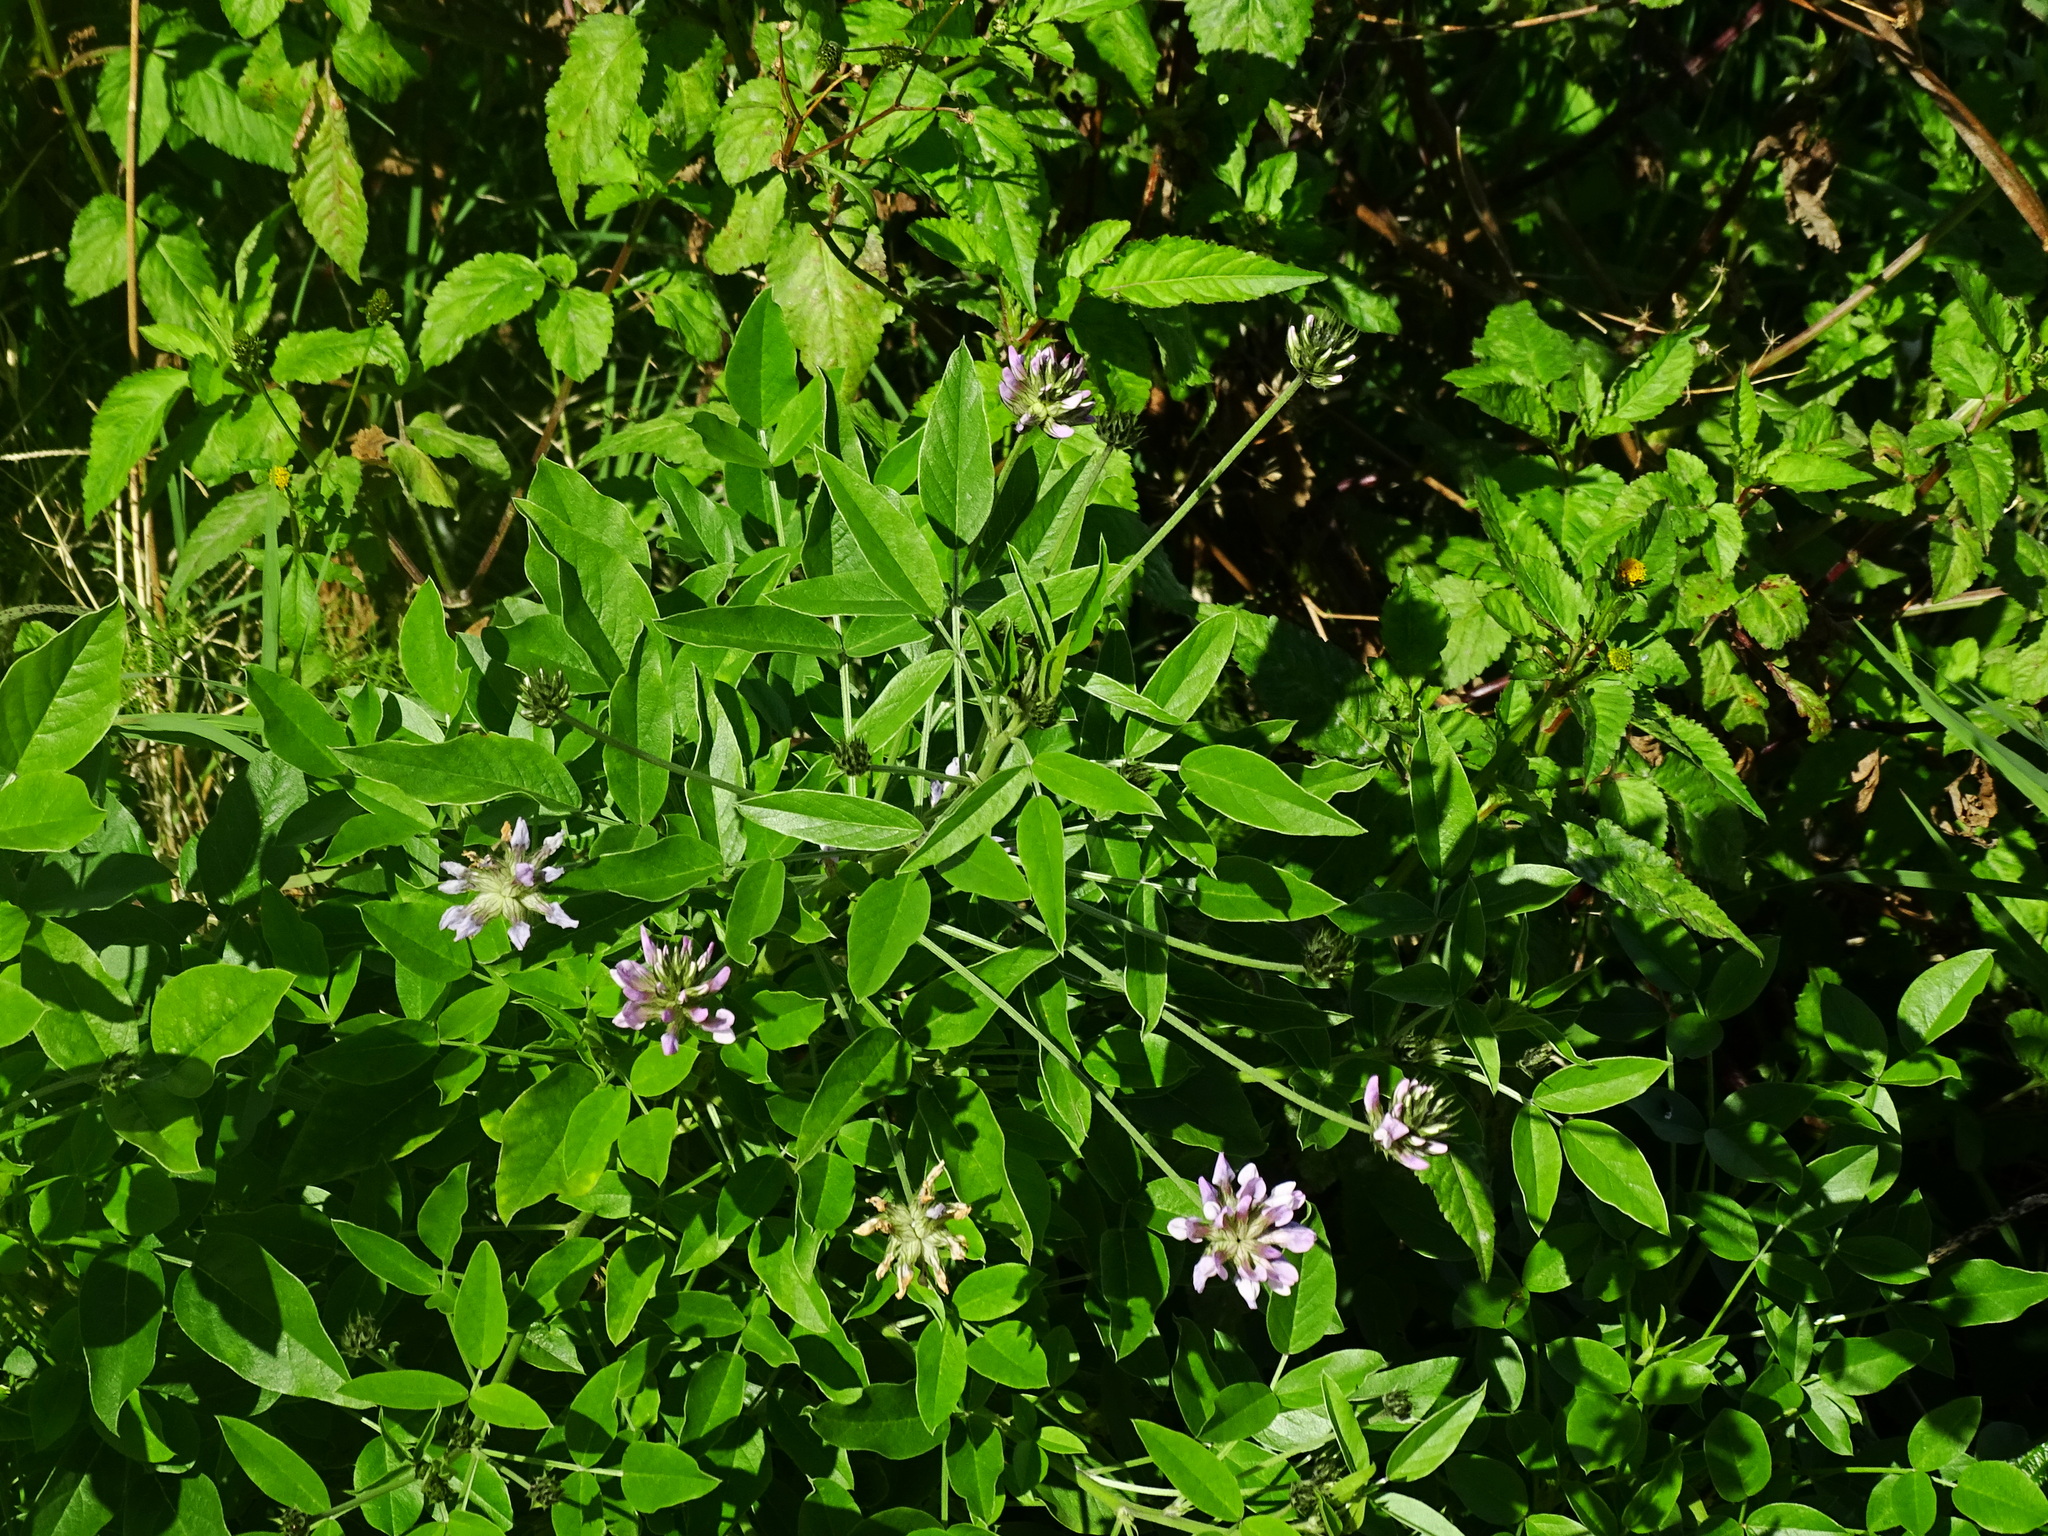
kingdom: Plantae
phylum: Tracheophyta
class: Magnoliopsida
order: Fabales
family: Fabaceae
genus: Bituminaria
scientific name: Bituminaria bituminosa
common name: Arabian pea
